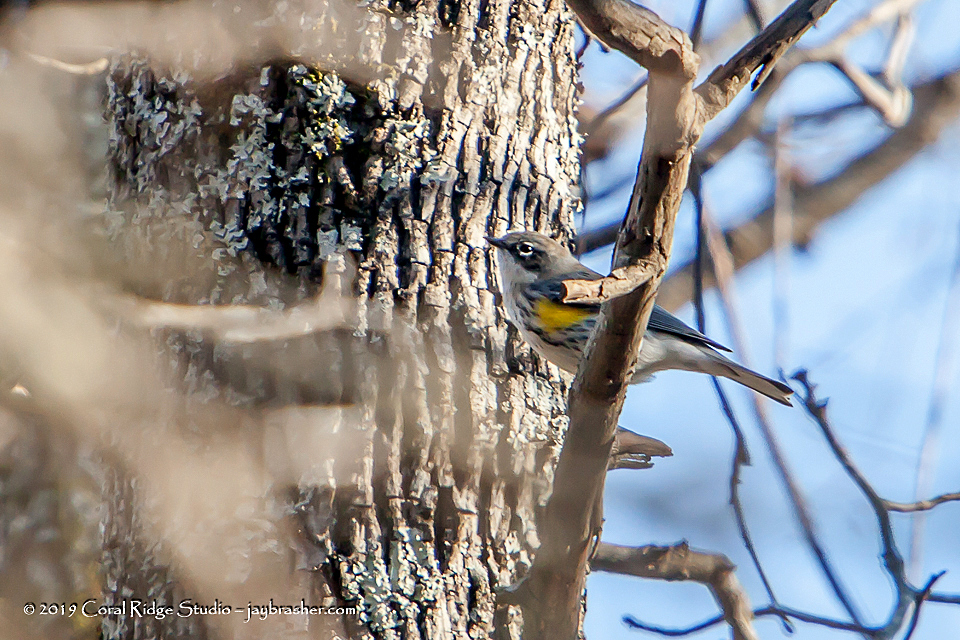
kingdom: Animalia
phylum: Chordata
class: Aves
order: Passeriformes
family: Parulidae
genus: Setophaga
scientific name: Setophaga coronata
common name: Myrtle warbler
